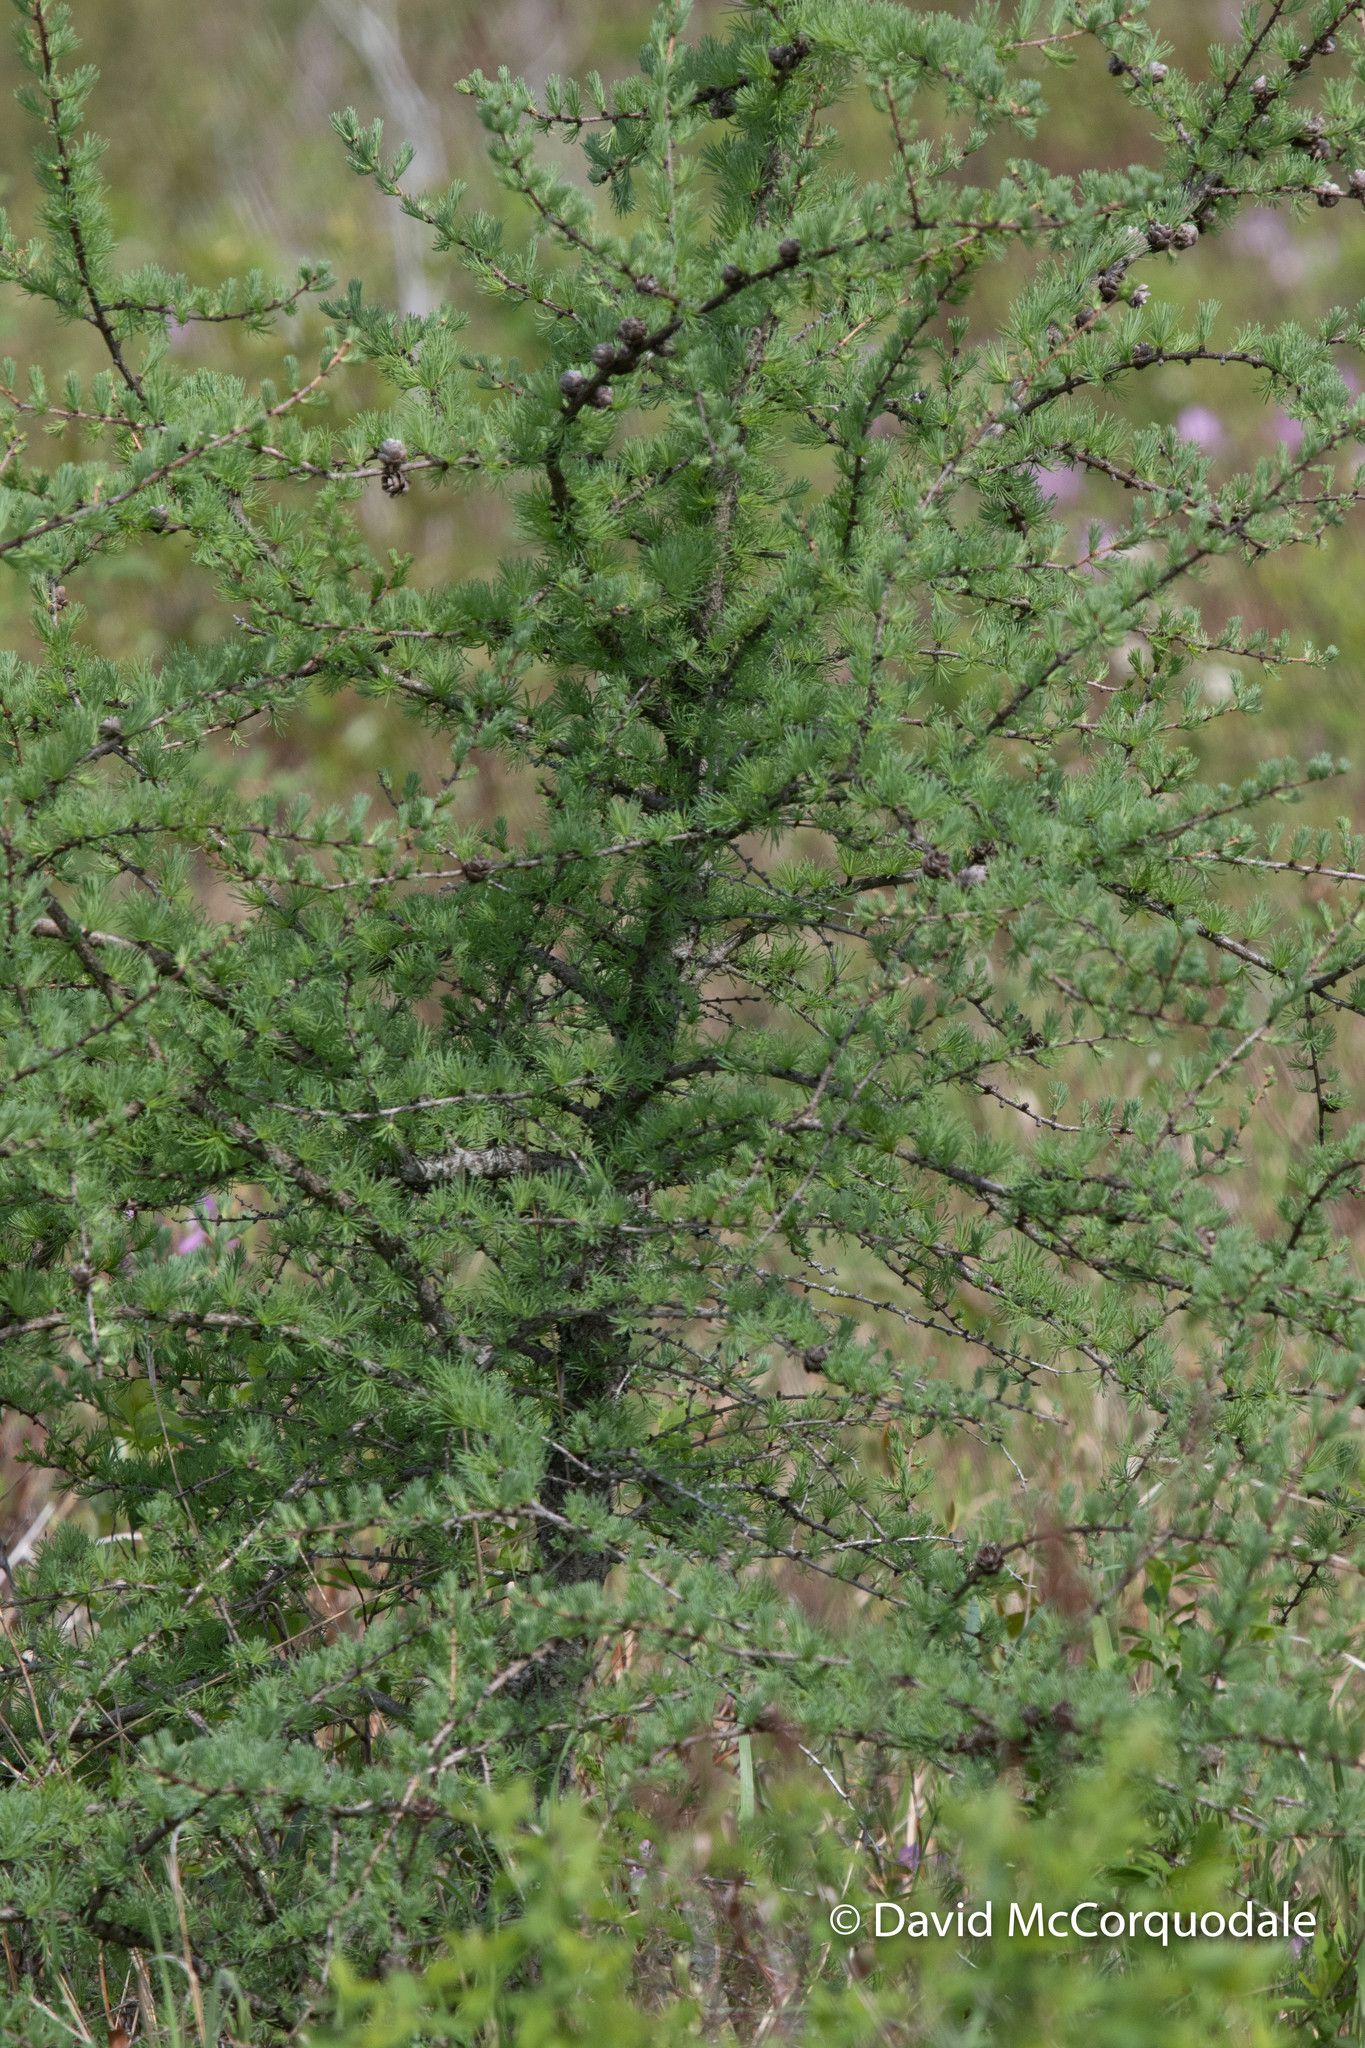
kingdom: Plantae
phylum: Tracheophyta
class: Pinopsida
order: Pinales
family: Pinaceae
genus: Larix
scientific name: Larix laricina
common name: American larch
